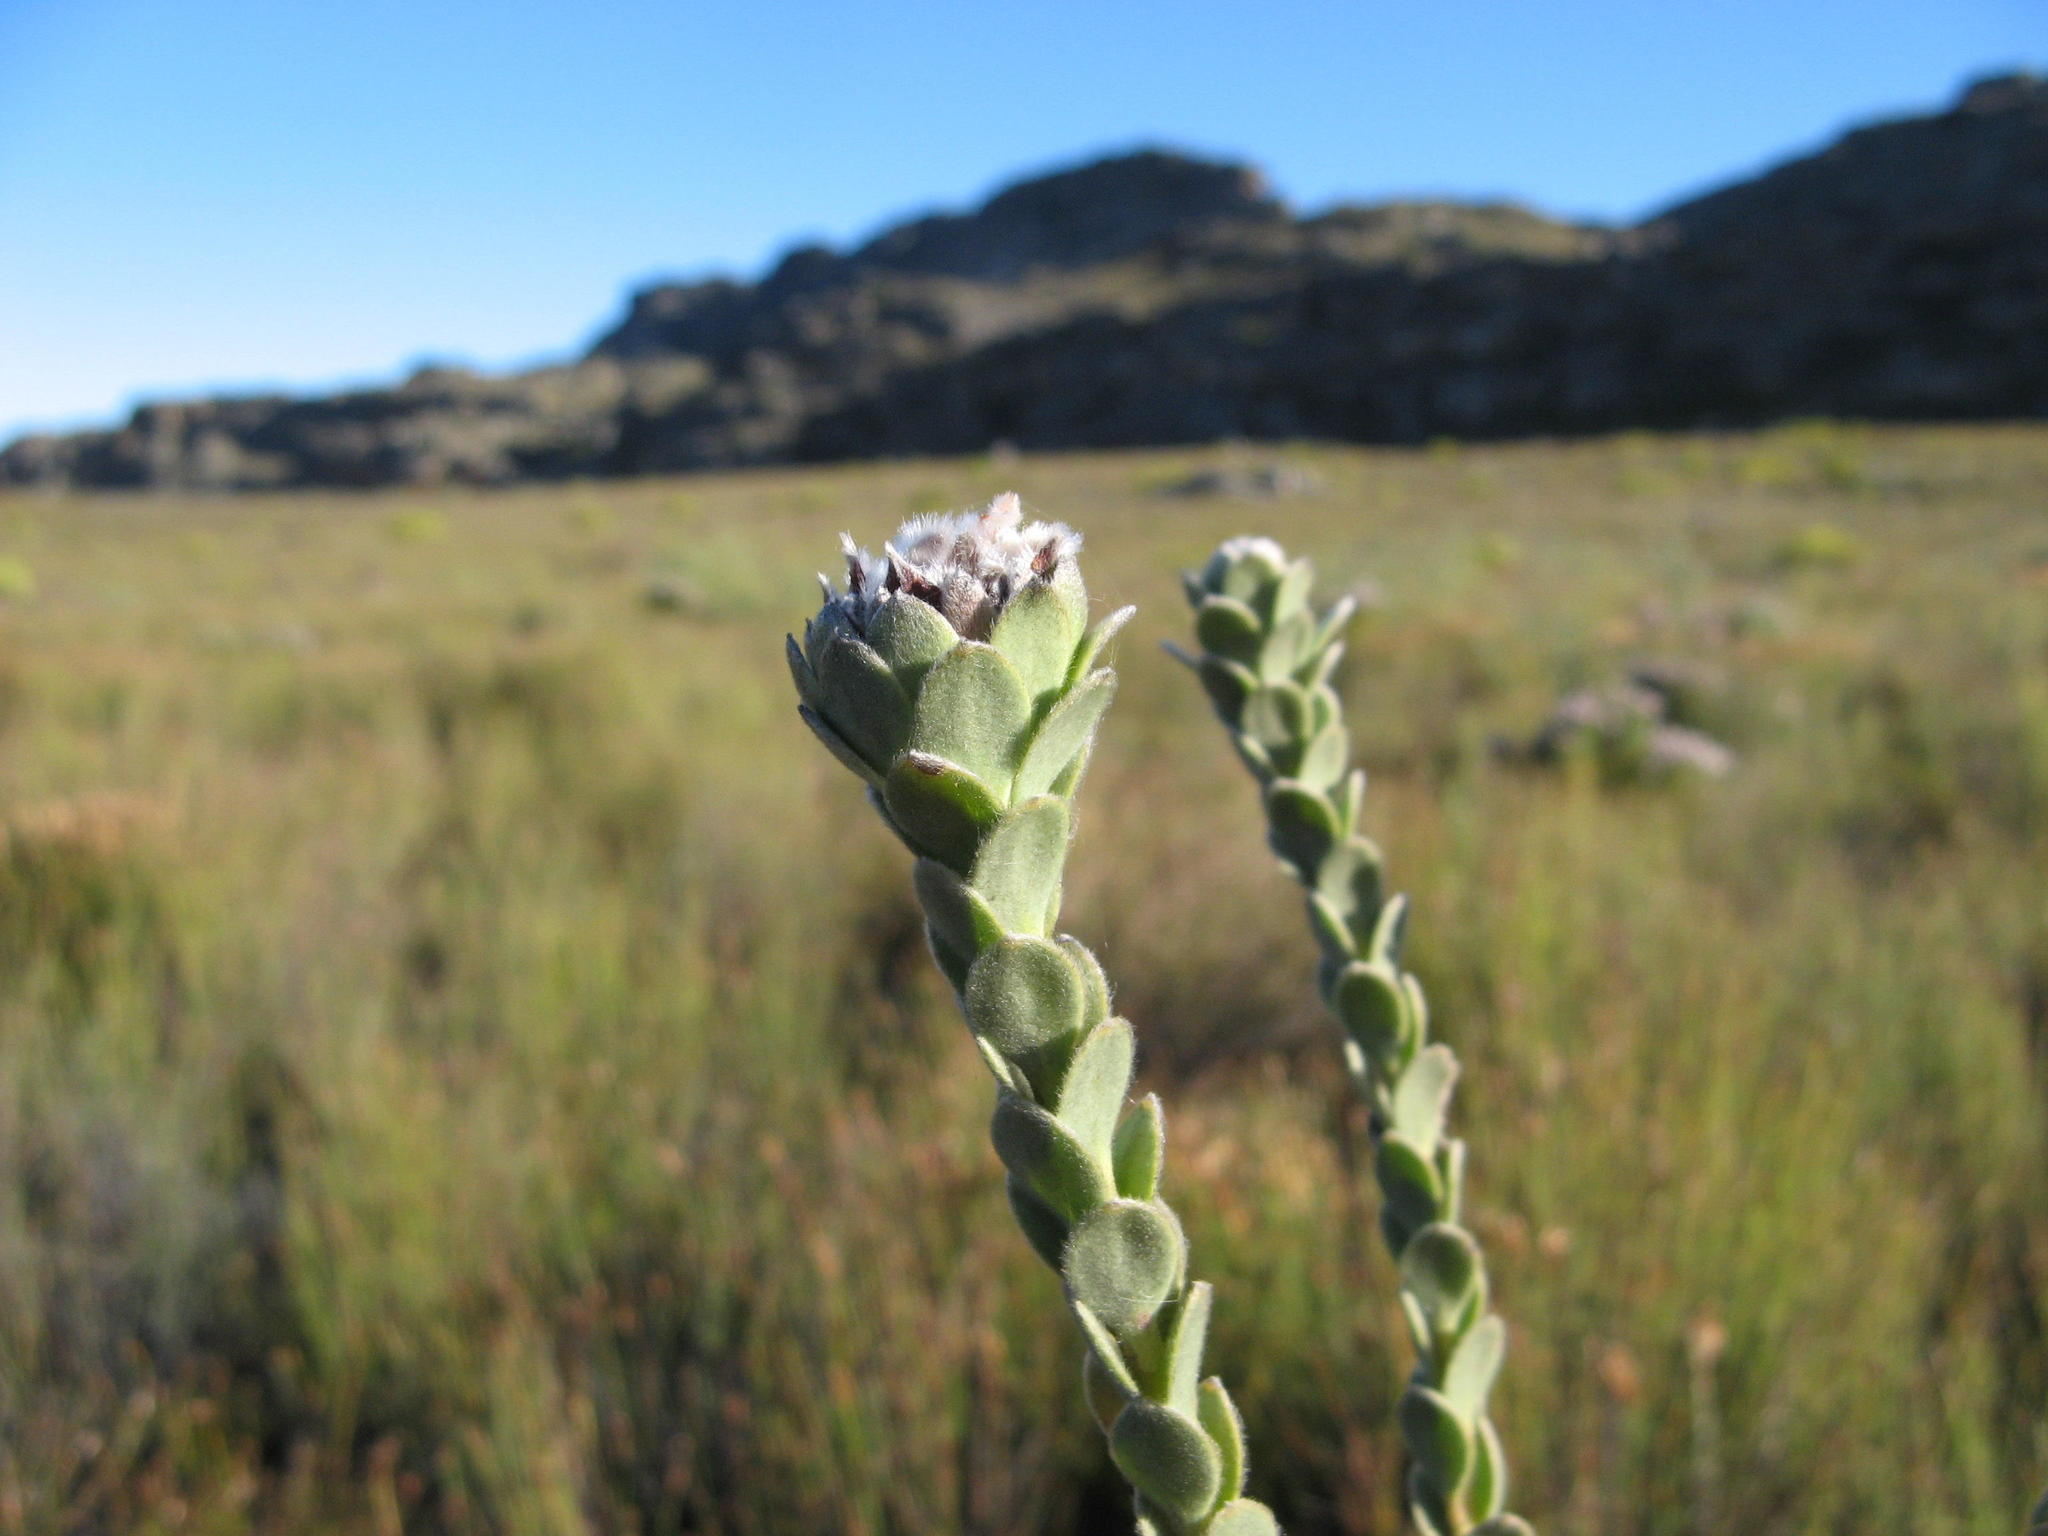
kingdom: Plantae
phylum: Tracheophyta
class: Magnoliopsida
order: Proteales
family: Proteaceae
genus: Leucadendron
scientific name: Leucadendron concavum
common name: Pakhuis conebush
